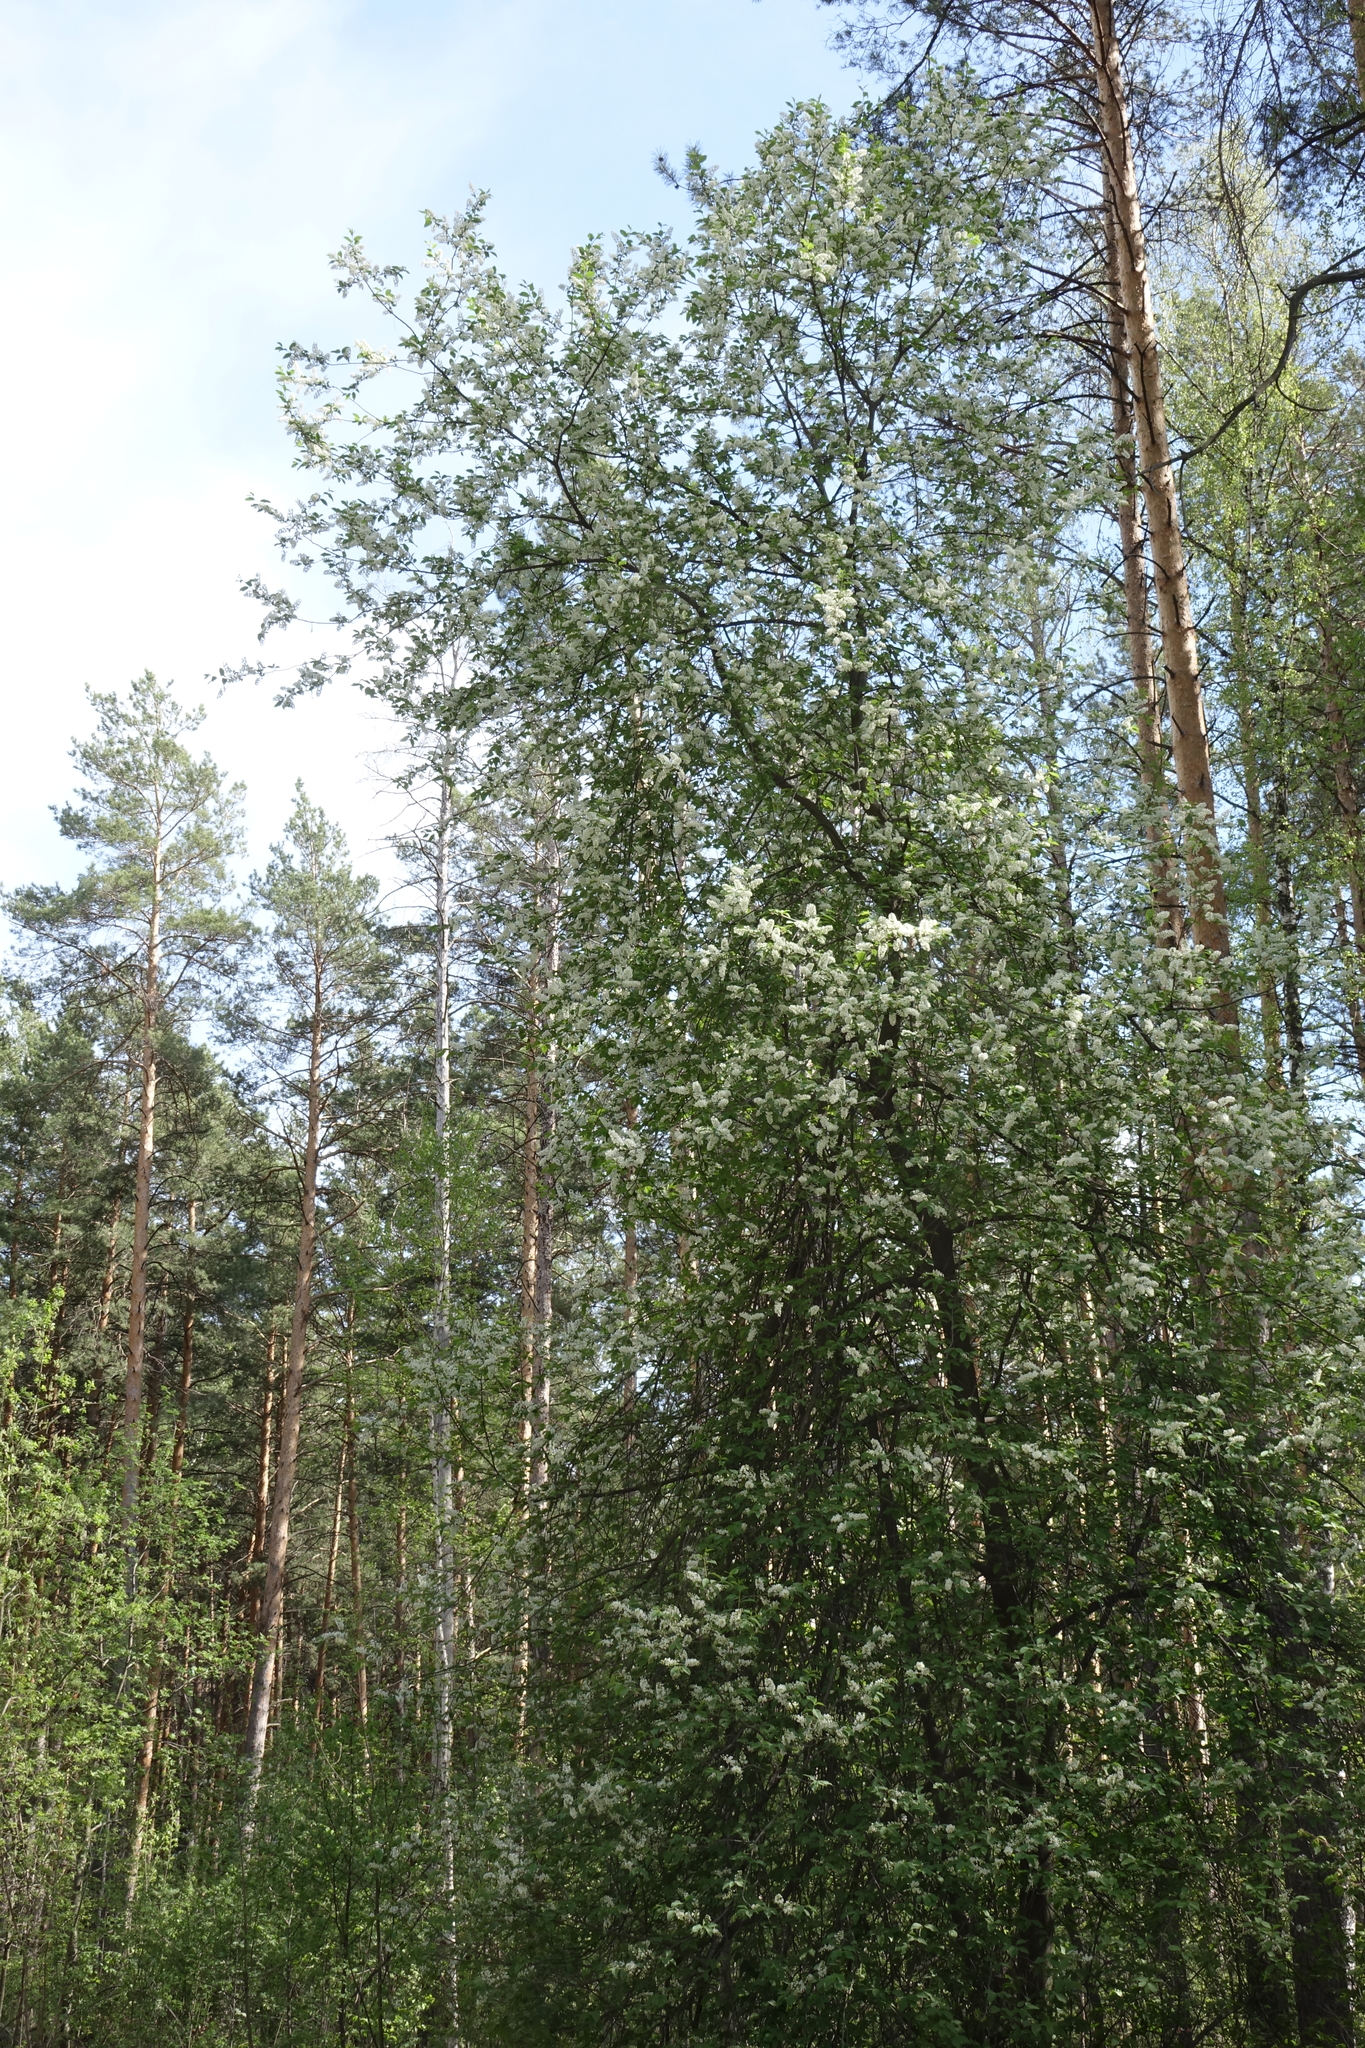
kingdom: Plantae
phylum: Tracheophyta
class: Magnoliopsida
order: Rosales
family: Rosaceae
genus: Prunus
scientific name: Prunus padus
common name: Bird cherry
